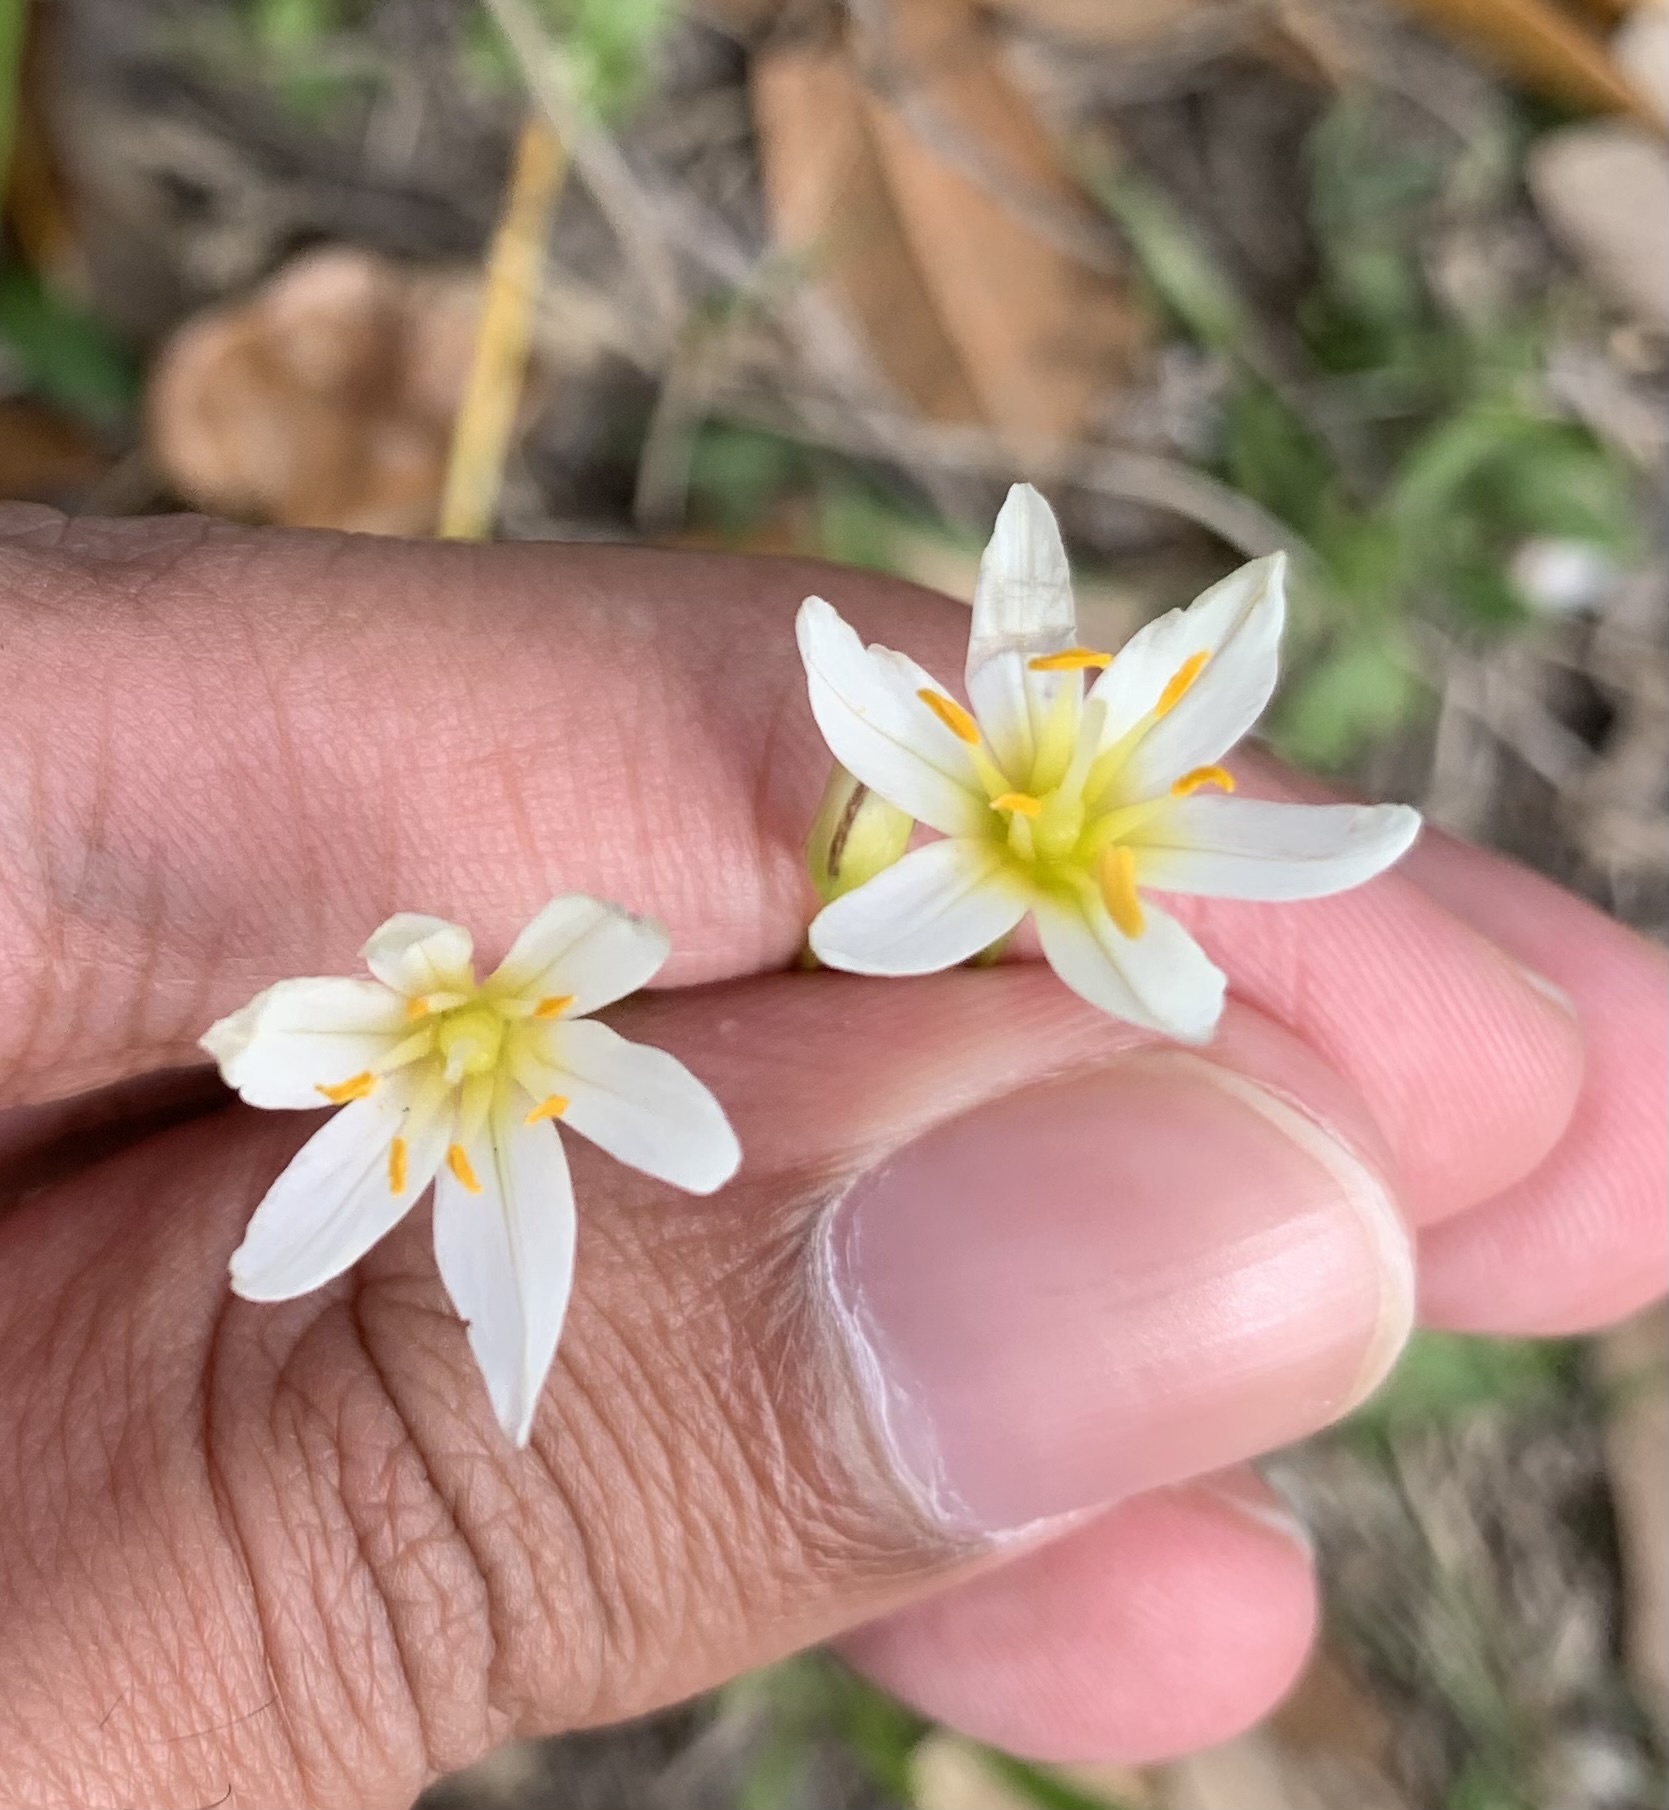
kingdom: Plantae
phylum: Tracheophyta
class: Liliopsida
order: Asparagales
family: Amaryllidaceae
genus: Nothoscordum
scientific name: Nothoscordum bivalve
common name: Crow-poison
